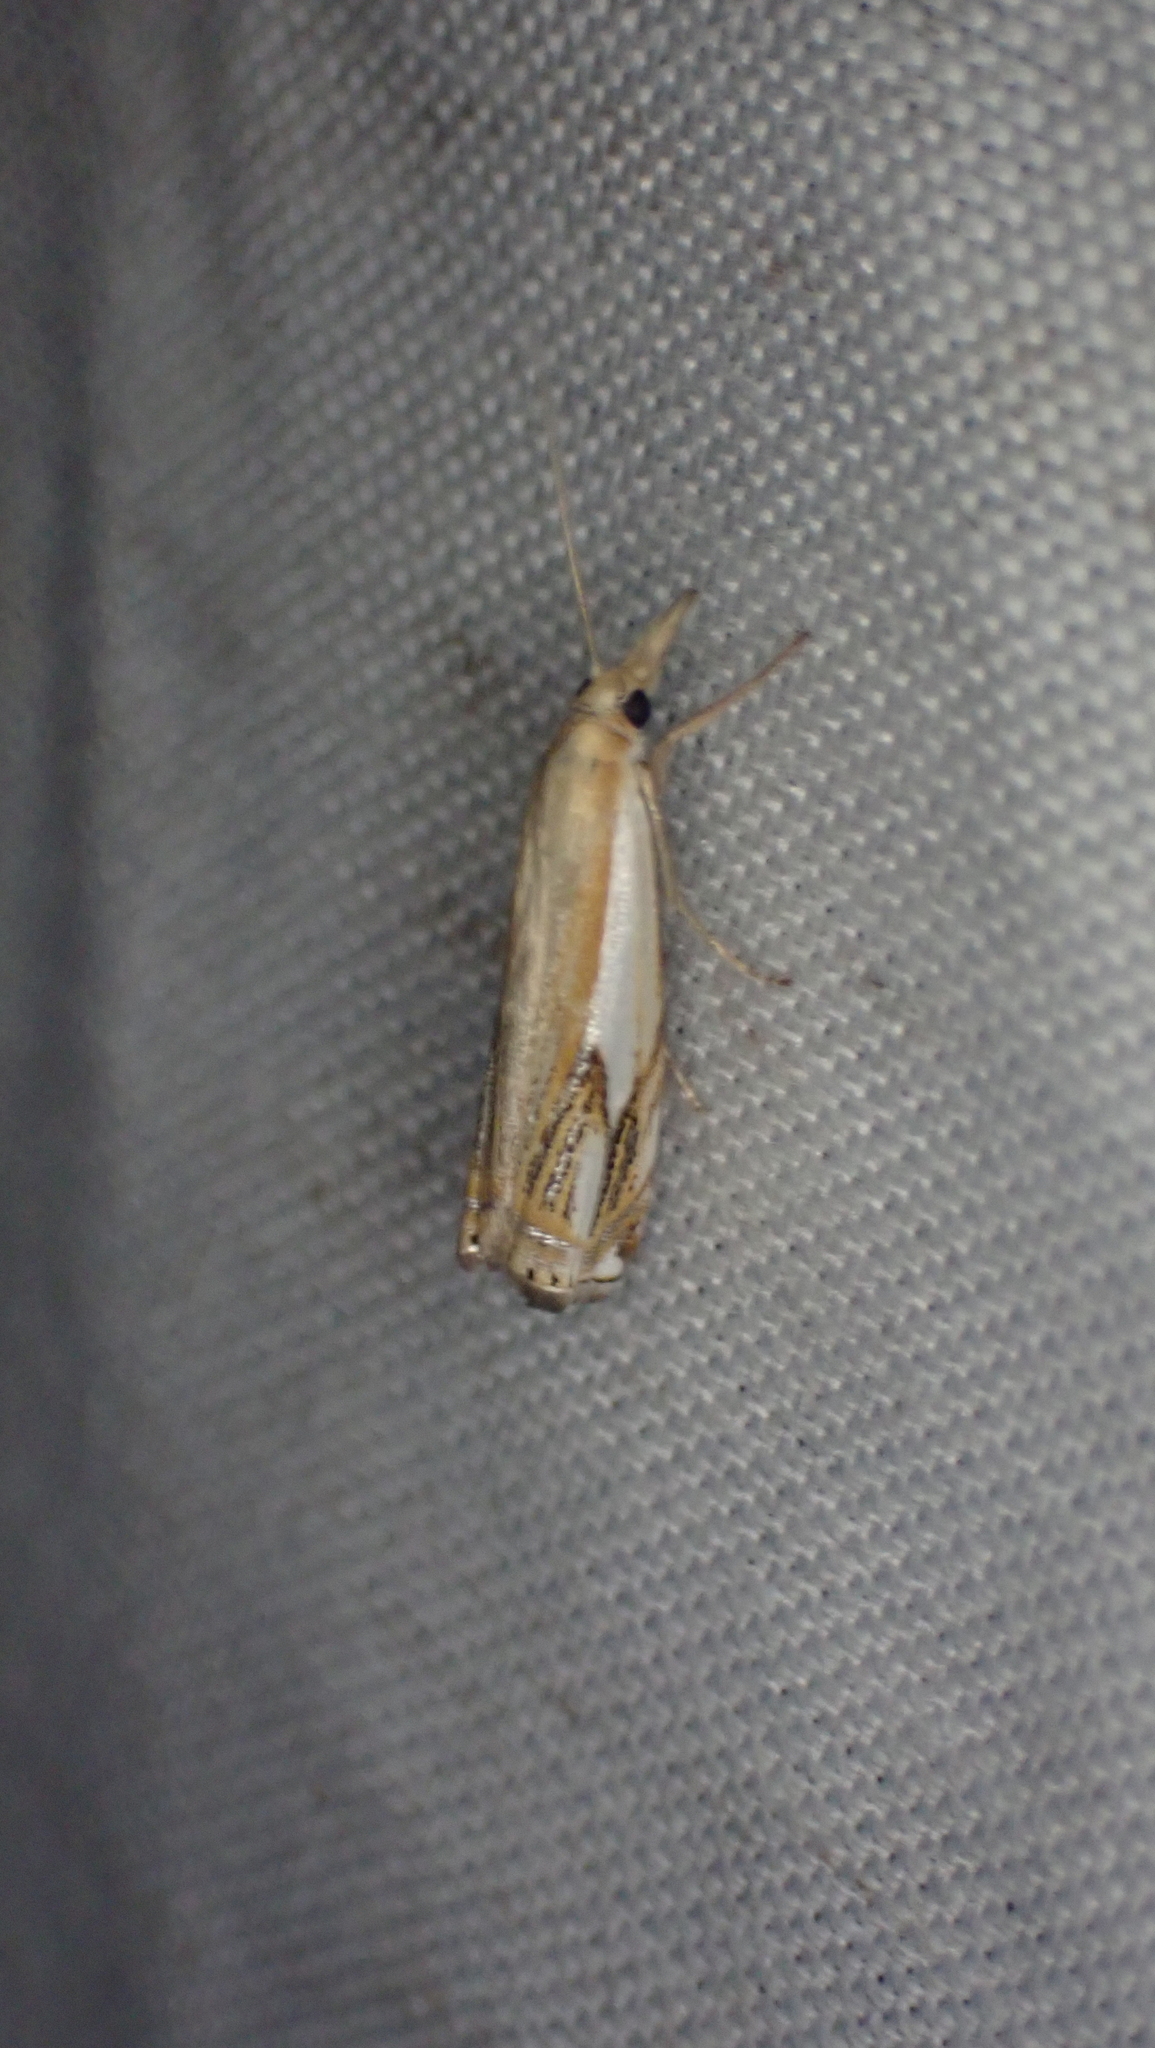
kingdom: Animalia
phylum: Arthropoda
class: Insecta
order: Lepidoptera
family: Crambidae
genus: Crambus
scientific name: Crambus agitatellus
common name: Double-banded grass-veneer
